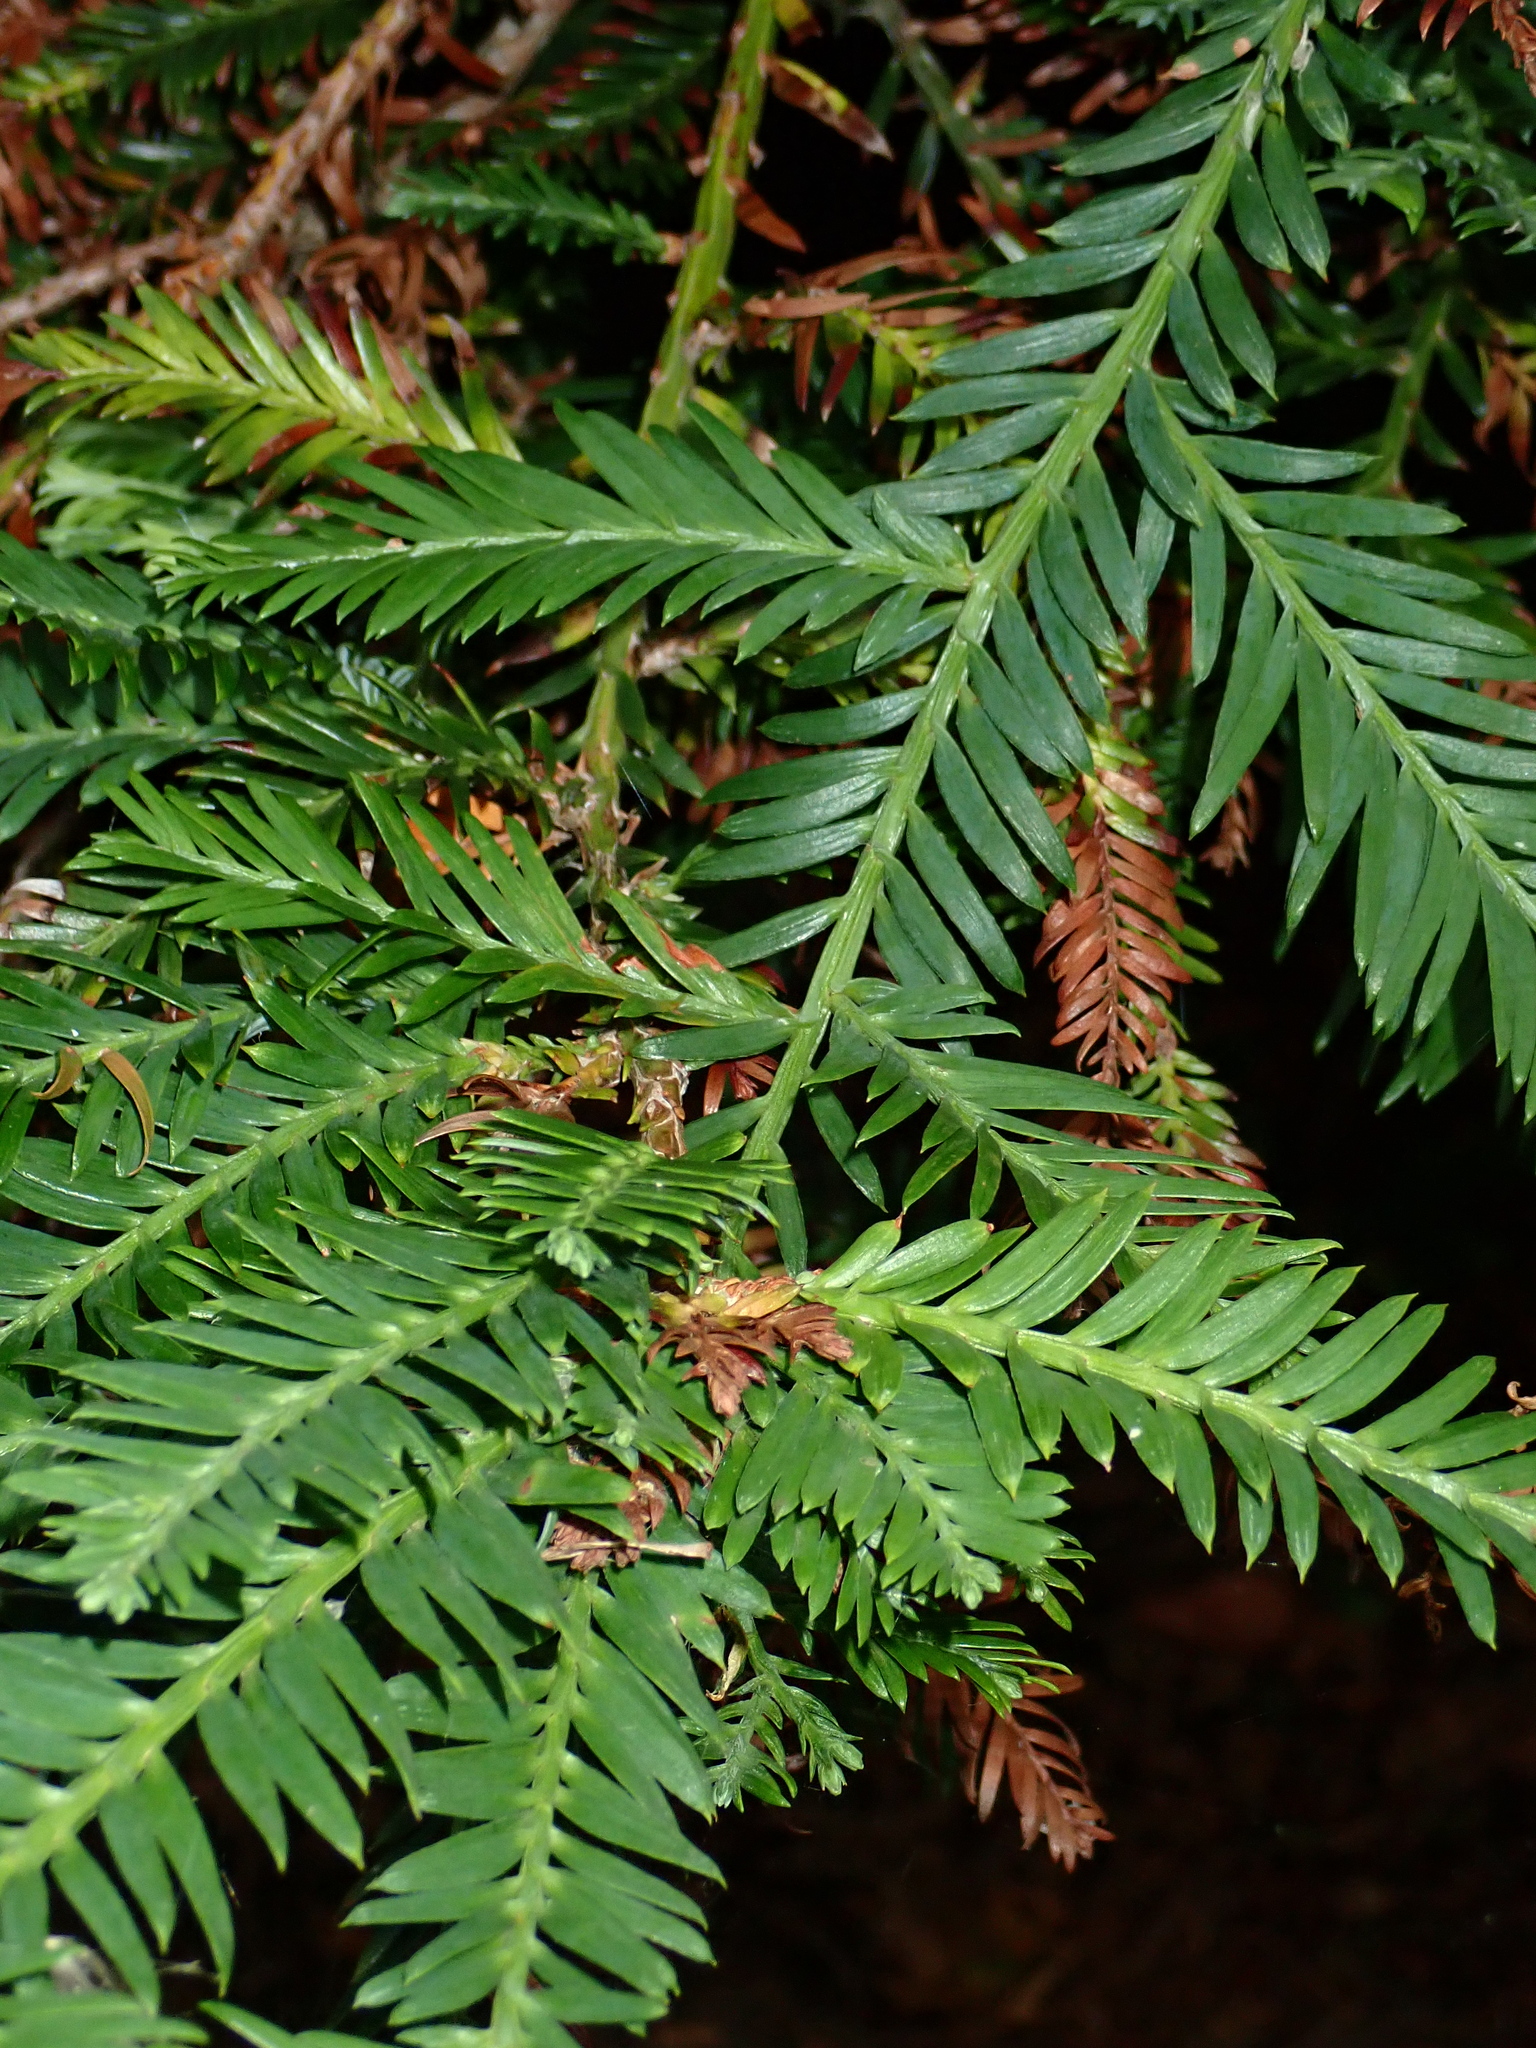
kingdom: Plantae
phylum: Tracheophyta
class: Pinopsida
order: Pinales
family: Taxaceae
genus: Taxus
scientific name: Taxus baccata
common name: Yew
